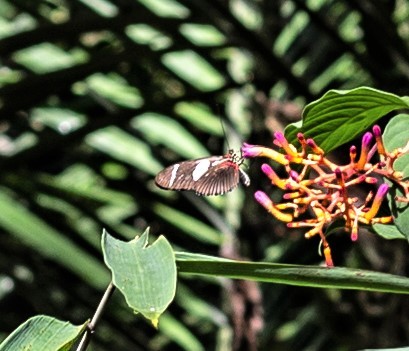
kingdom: Animalia
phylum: Arthropoda
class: Insecta
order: Lepidoptera
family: Nymphalidae
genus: Heliconius
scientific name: Heliconius wallacei
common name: Wallace's longwing
